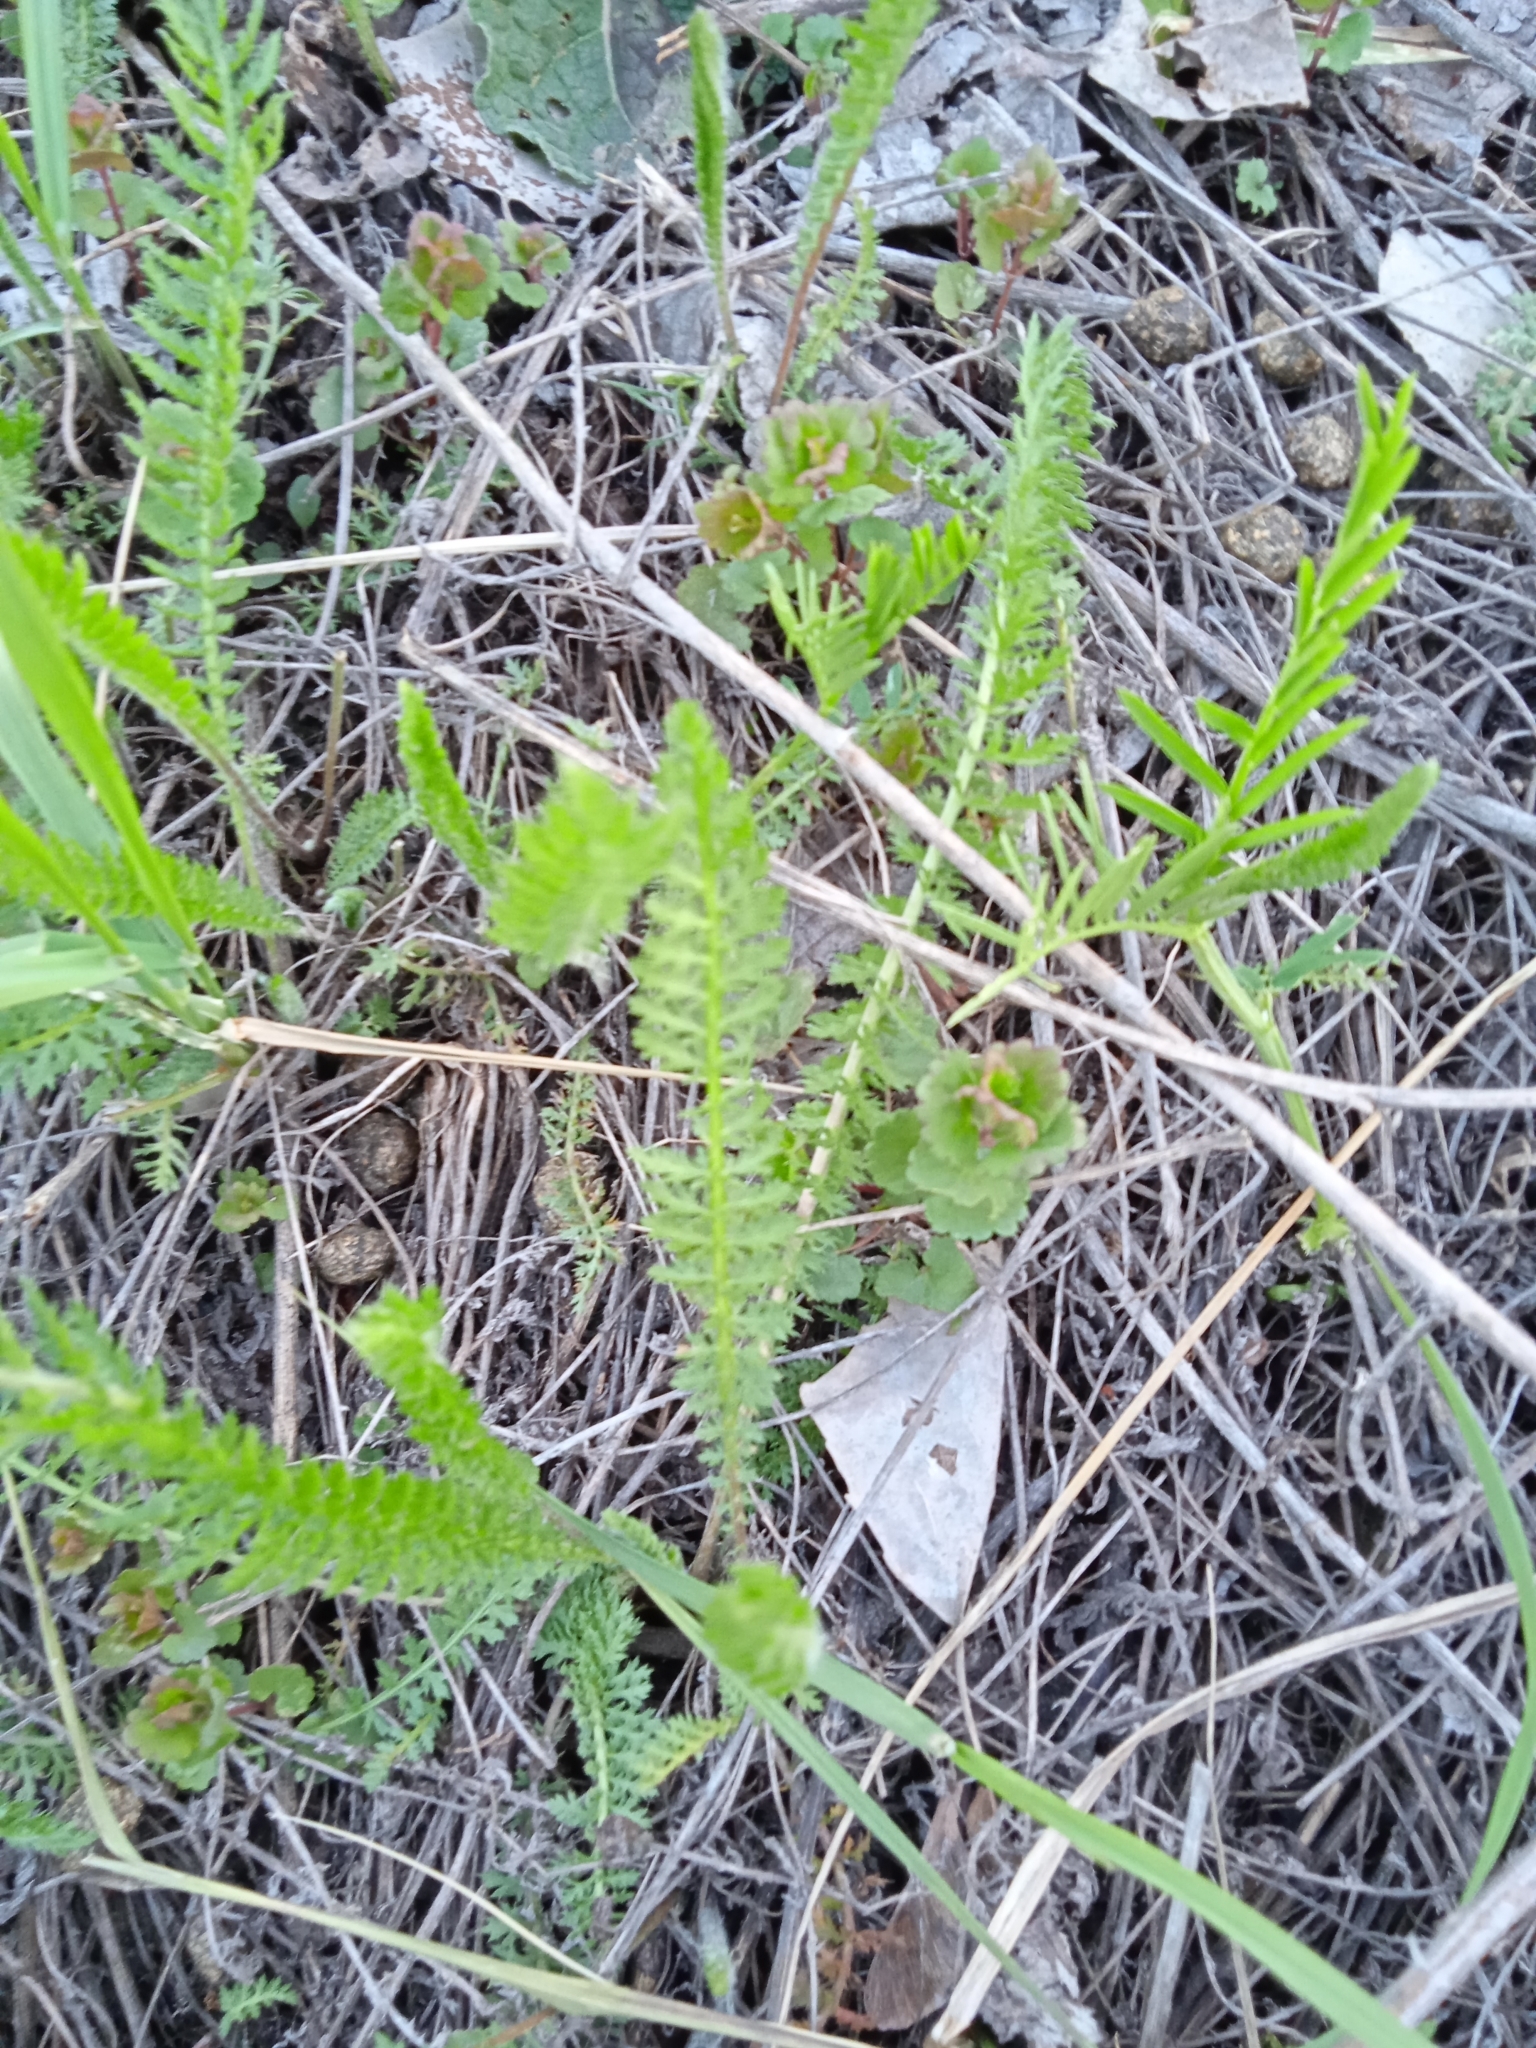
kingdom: Plantae
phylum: Tracheophyta
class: Magnoliopsida
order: Asterales
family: Asteraceae
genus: Achillea
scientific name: Achillea millefolium
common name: Yarrow
